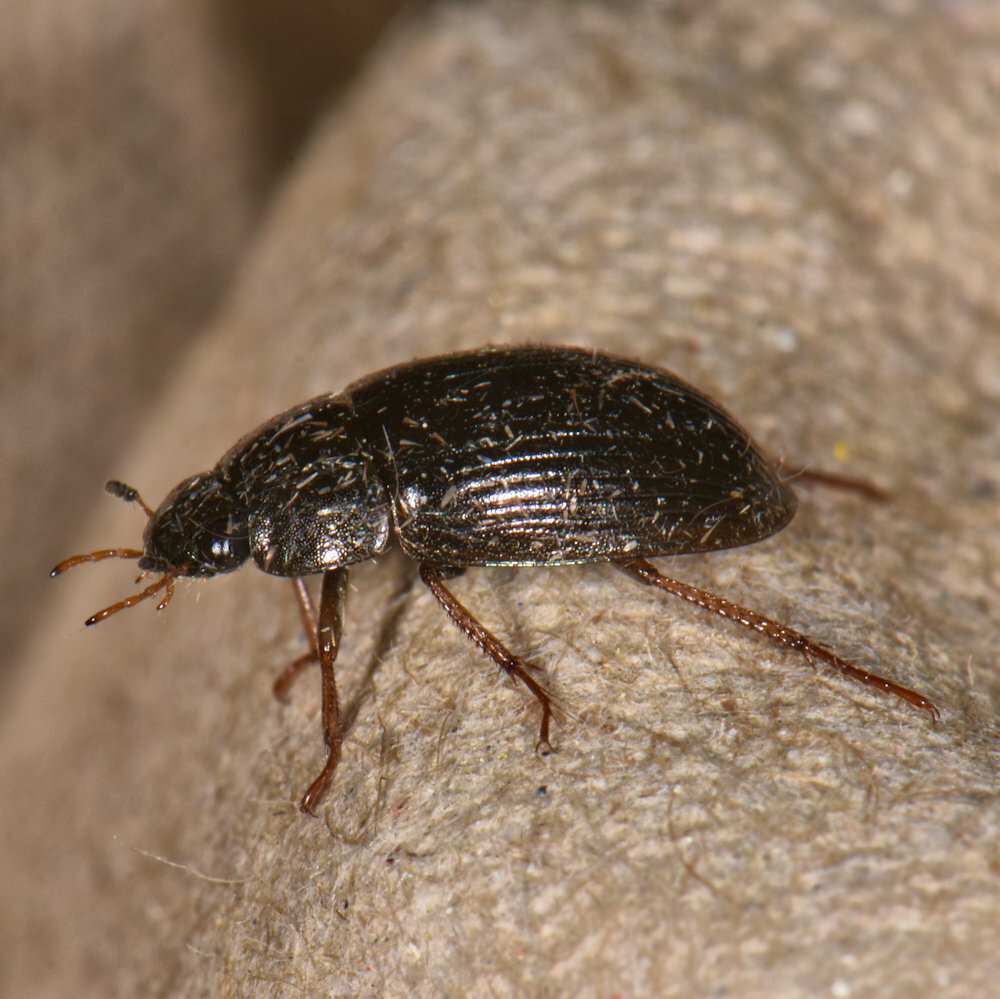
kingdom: Animalia
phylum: Arthropoda
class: Insecta
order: Coleoptera
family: Hydrophilidae
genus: Hydrobius
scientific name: Hydrobius fuscipes
